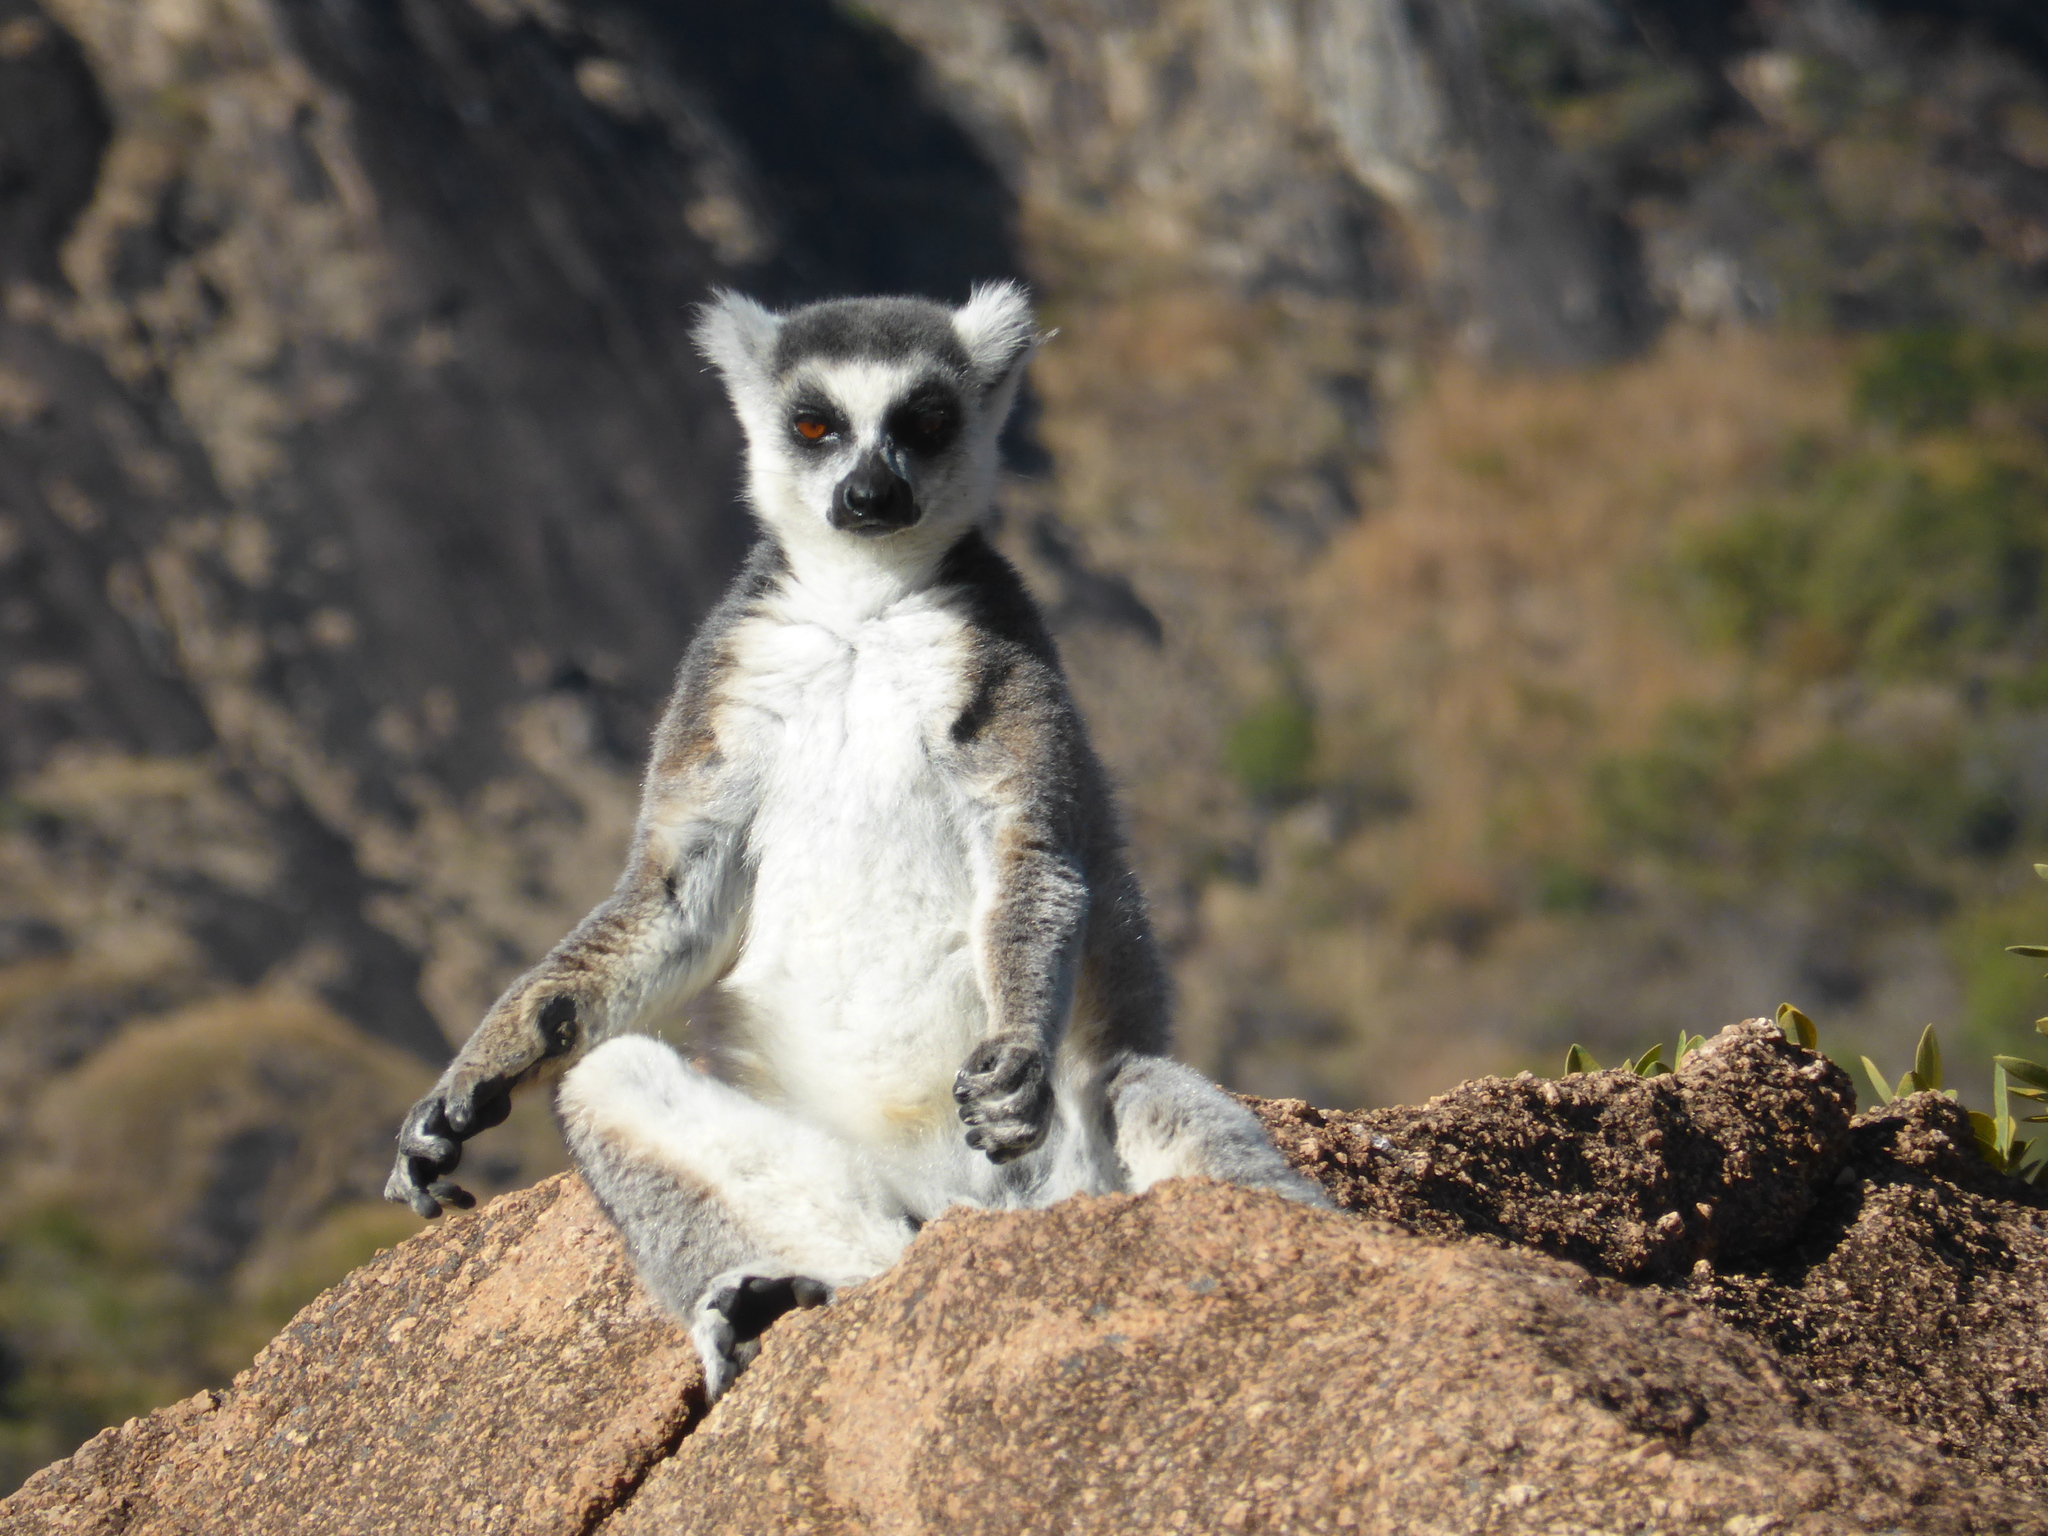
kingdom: Animalia
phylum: Chordata
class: Mammalia
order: Primates
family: Lemuridae
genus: Lemur
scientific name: Lemur catta
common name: Ring-tailed lemur
